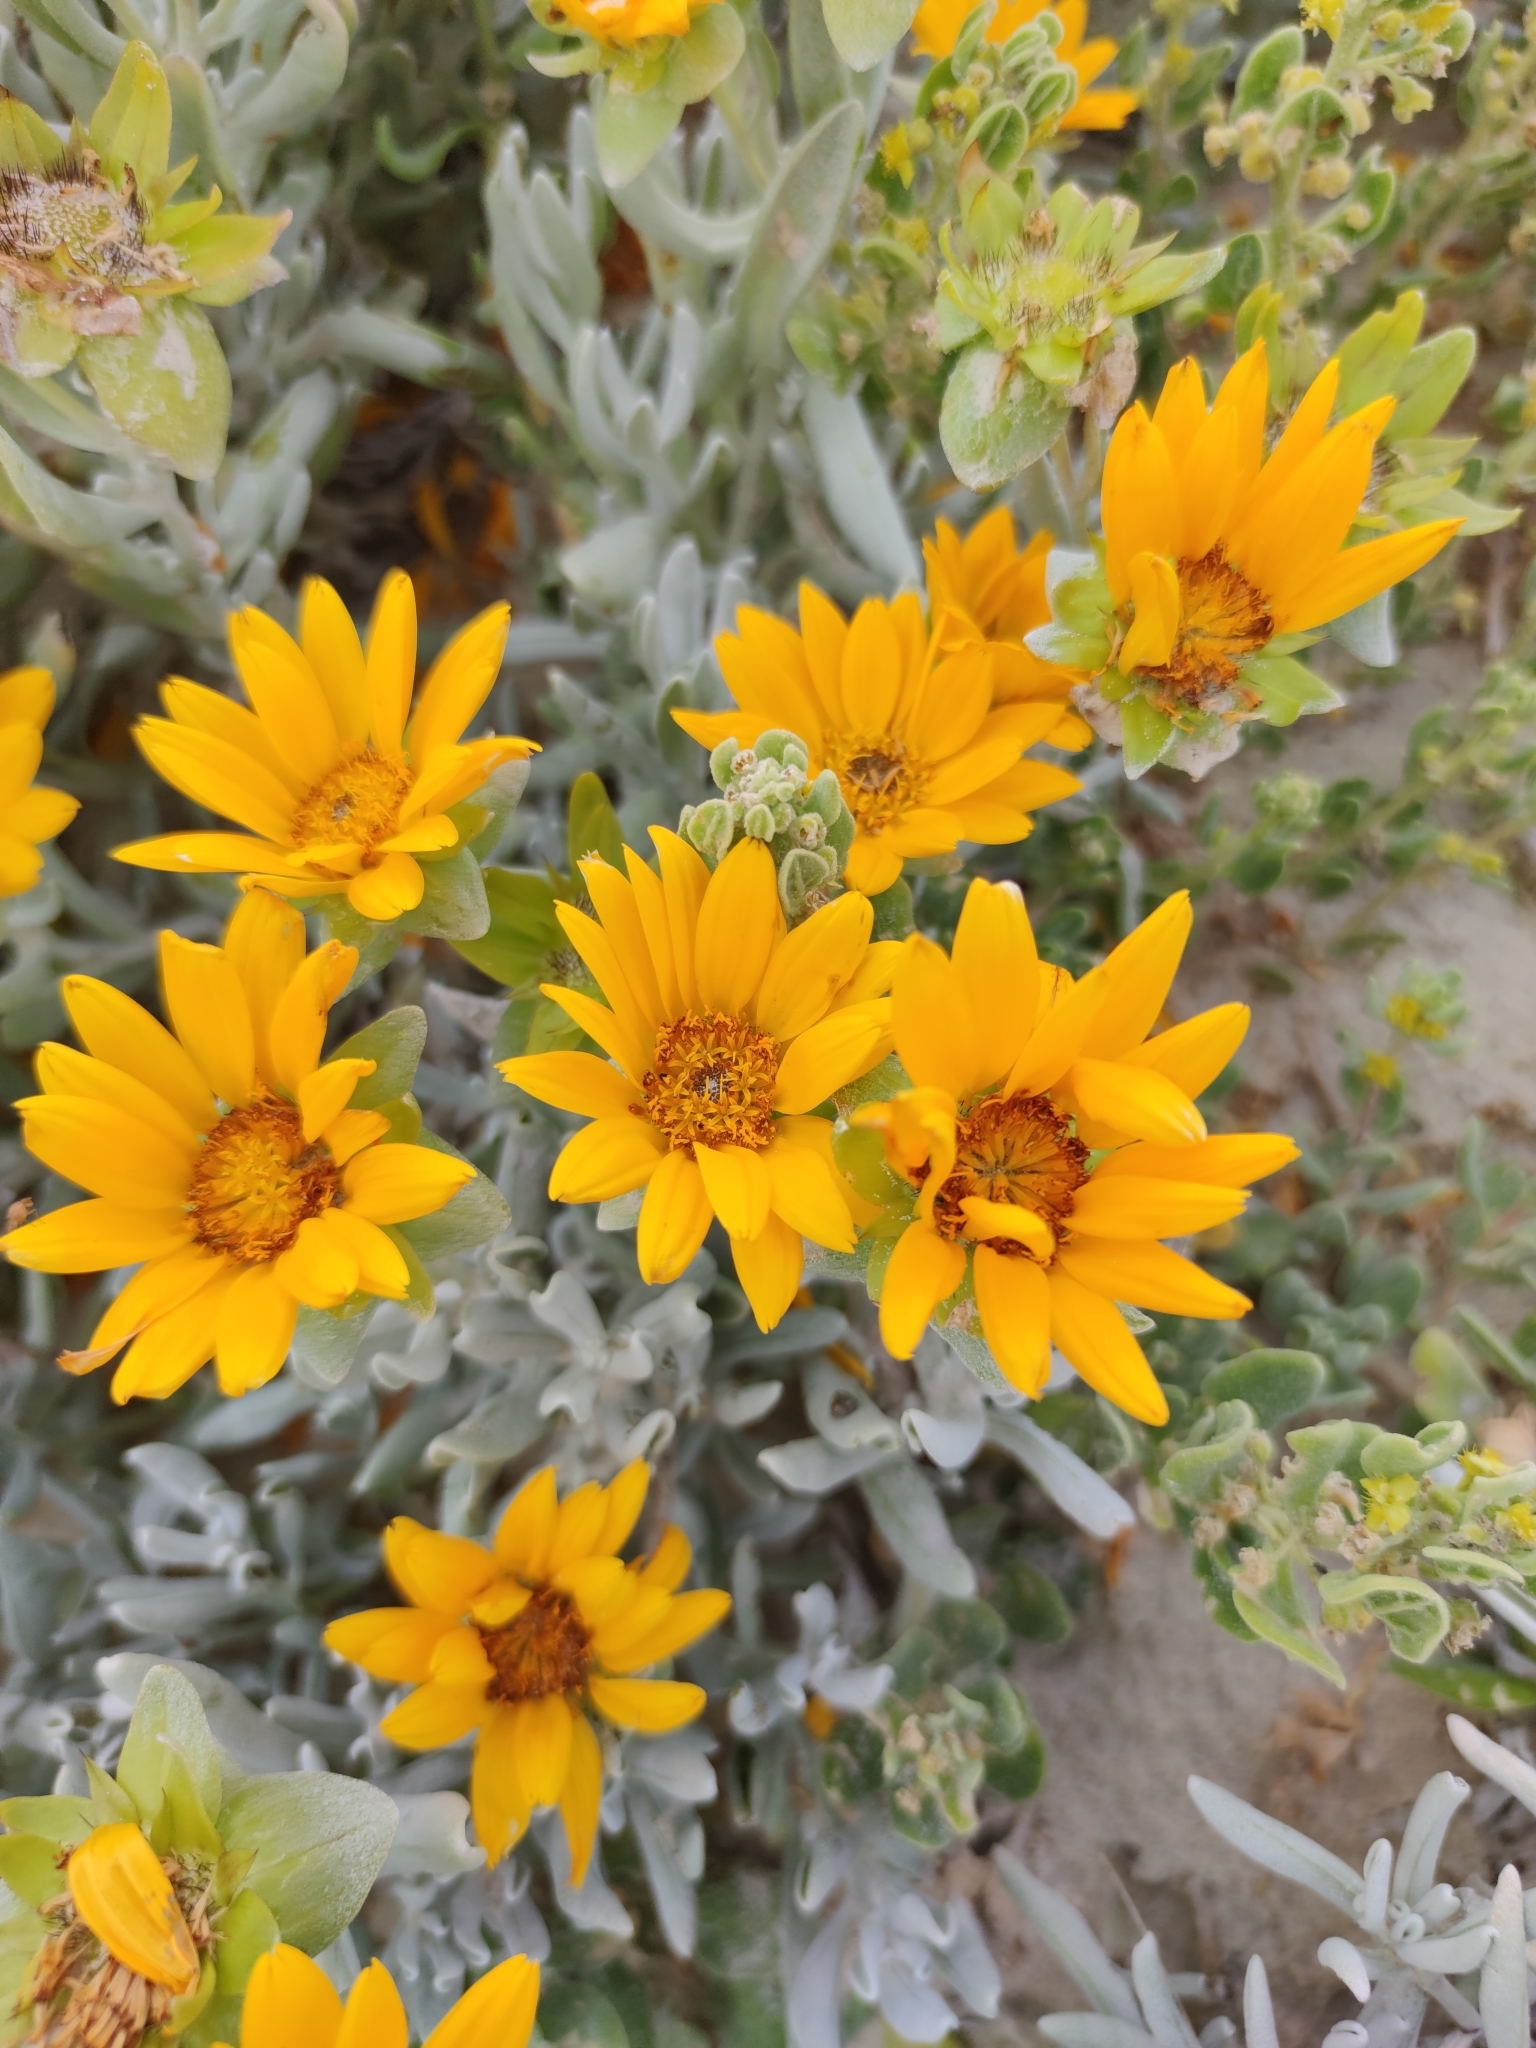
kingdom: Plantae
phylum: Tracheophyta
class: Magnoliopsida
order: Asterales
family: Asteraceae
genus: Didelta
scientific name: Didelta carnosa
